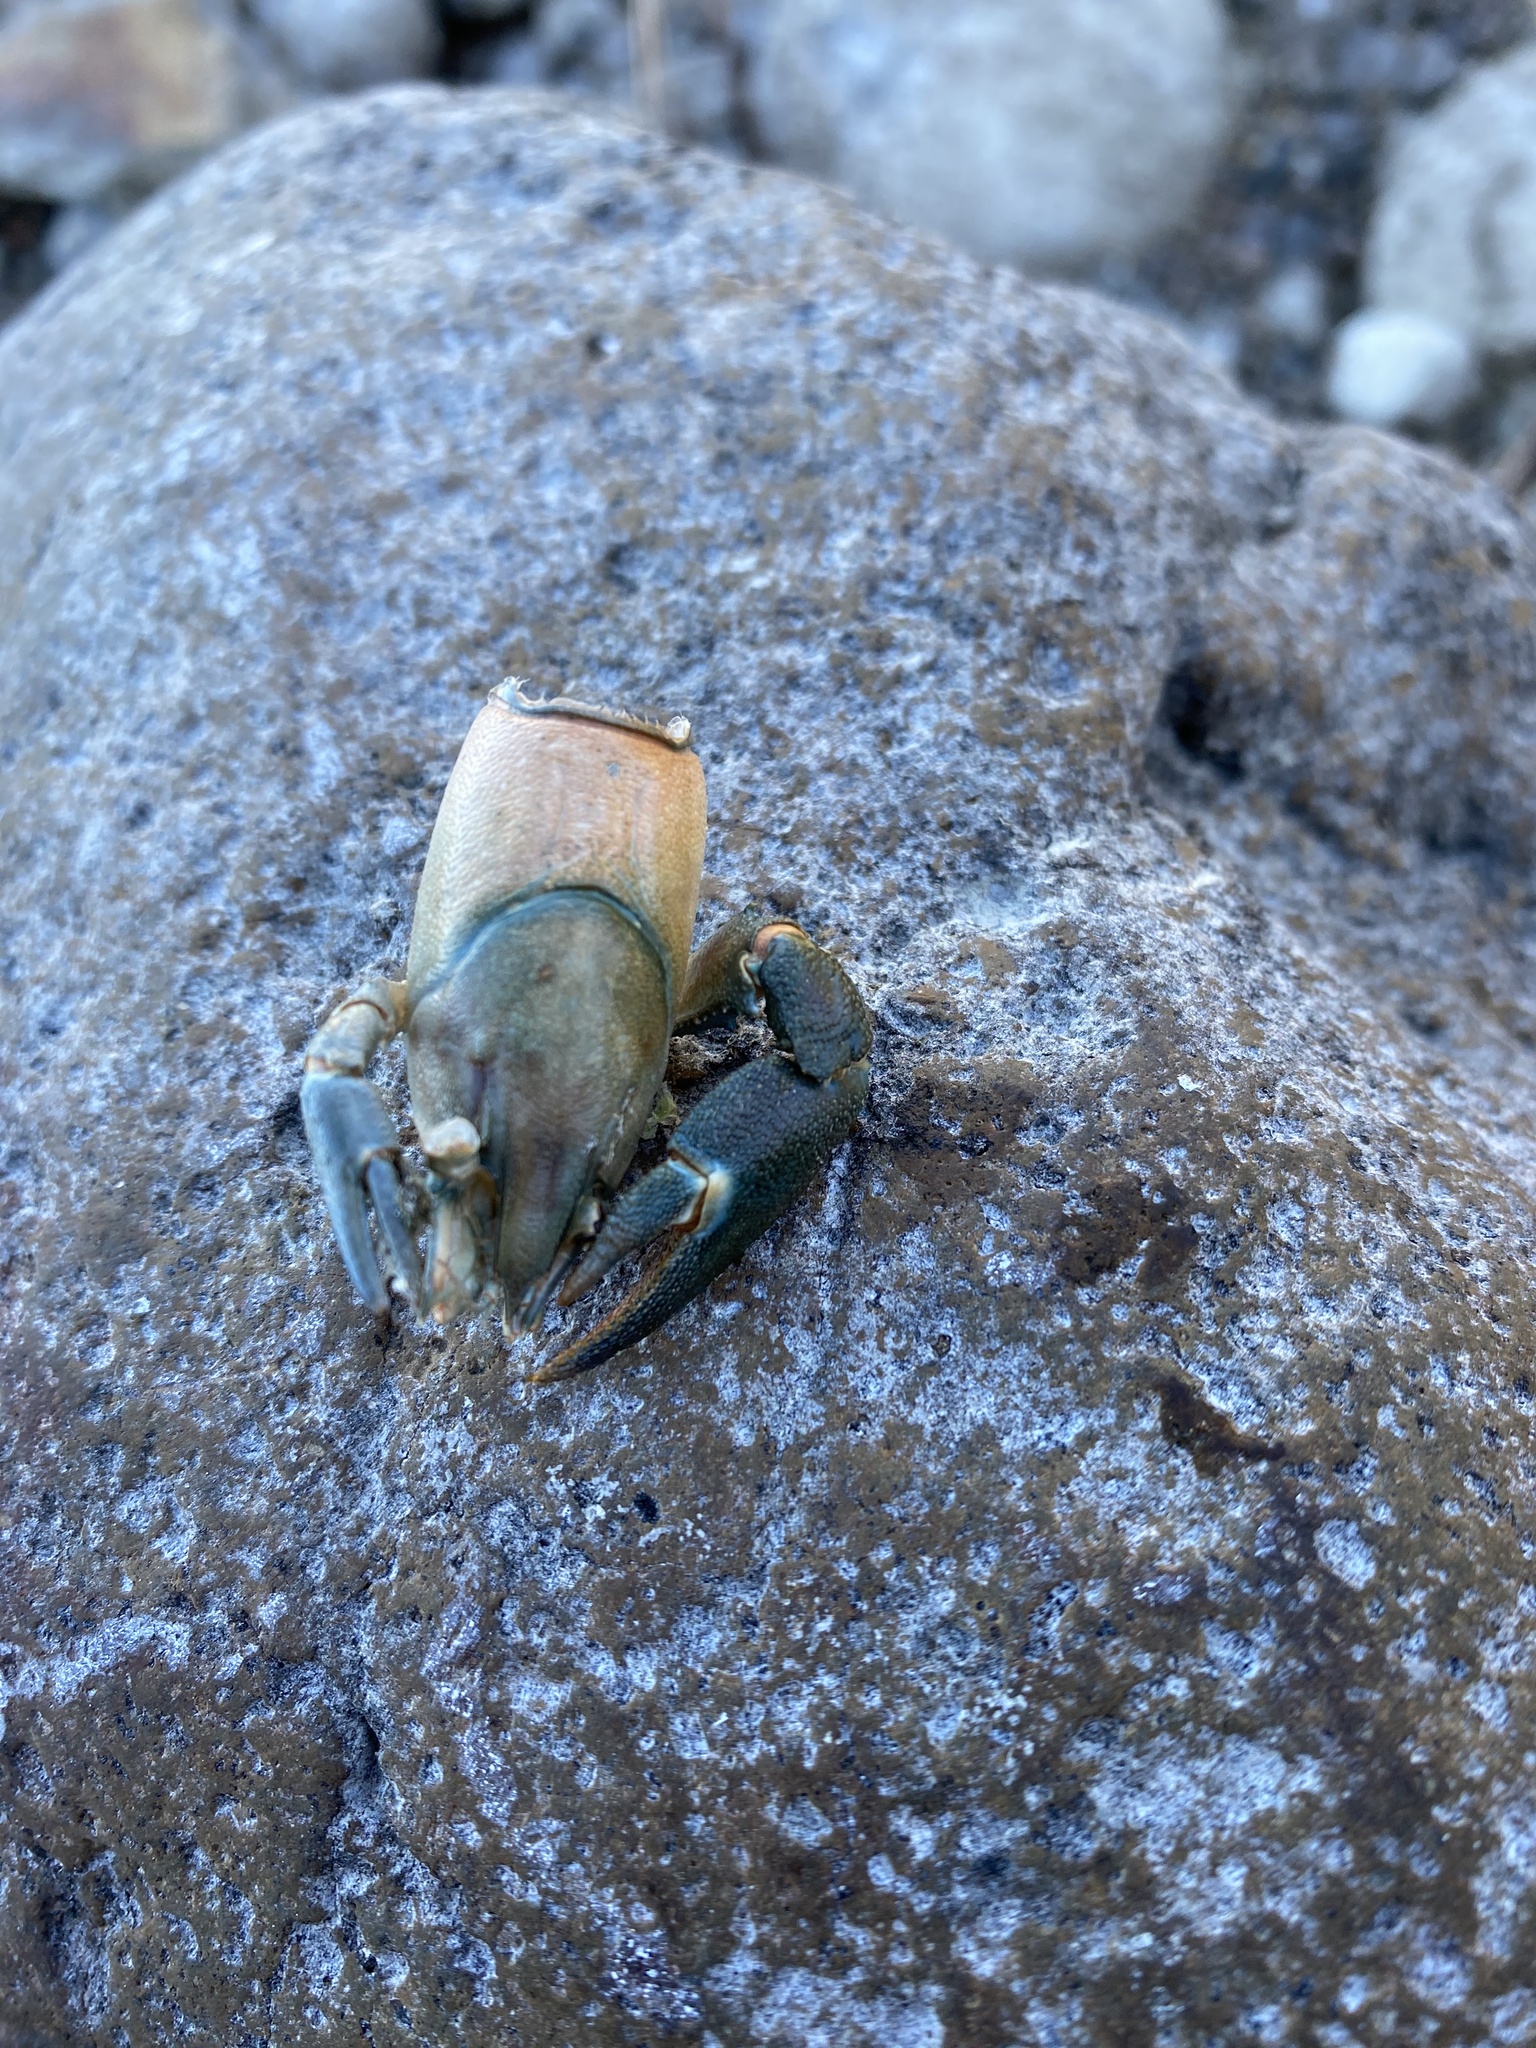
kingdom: Animalia
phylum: Arthropoda
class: Malacostraca
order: Decapoda
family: Astacidae
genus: Pacifastacus
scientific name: Pacifastacus leniusculus
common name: Signal crayfish
